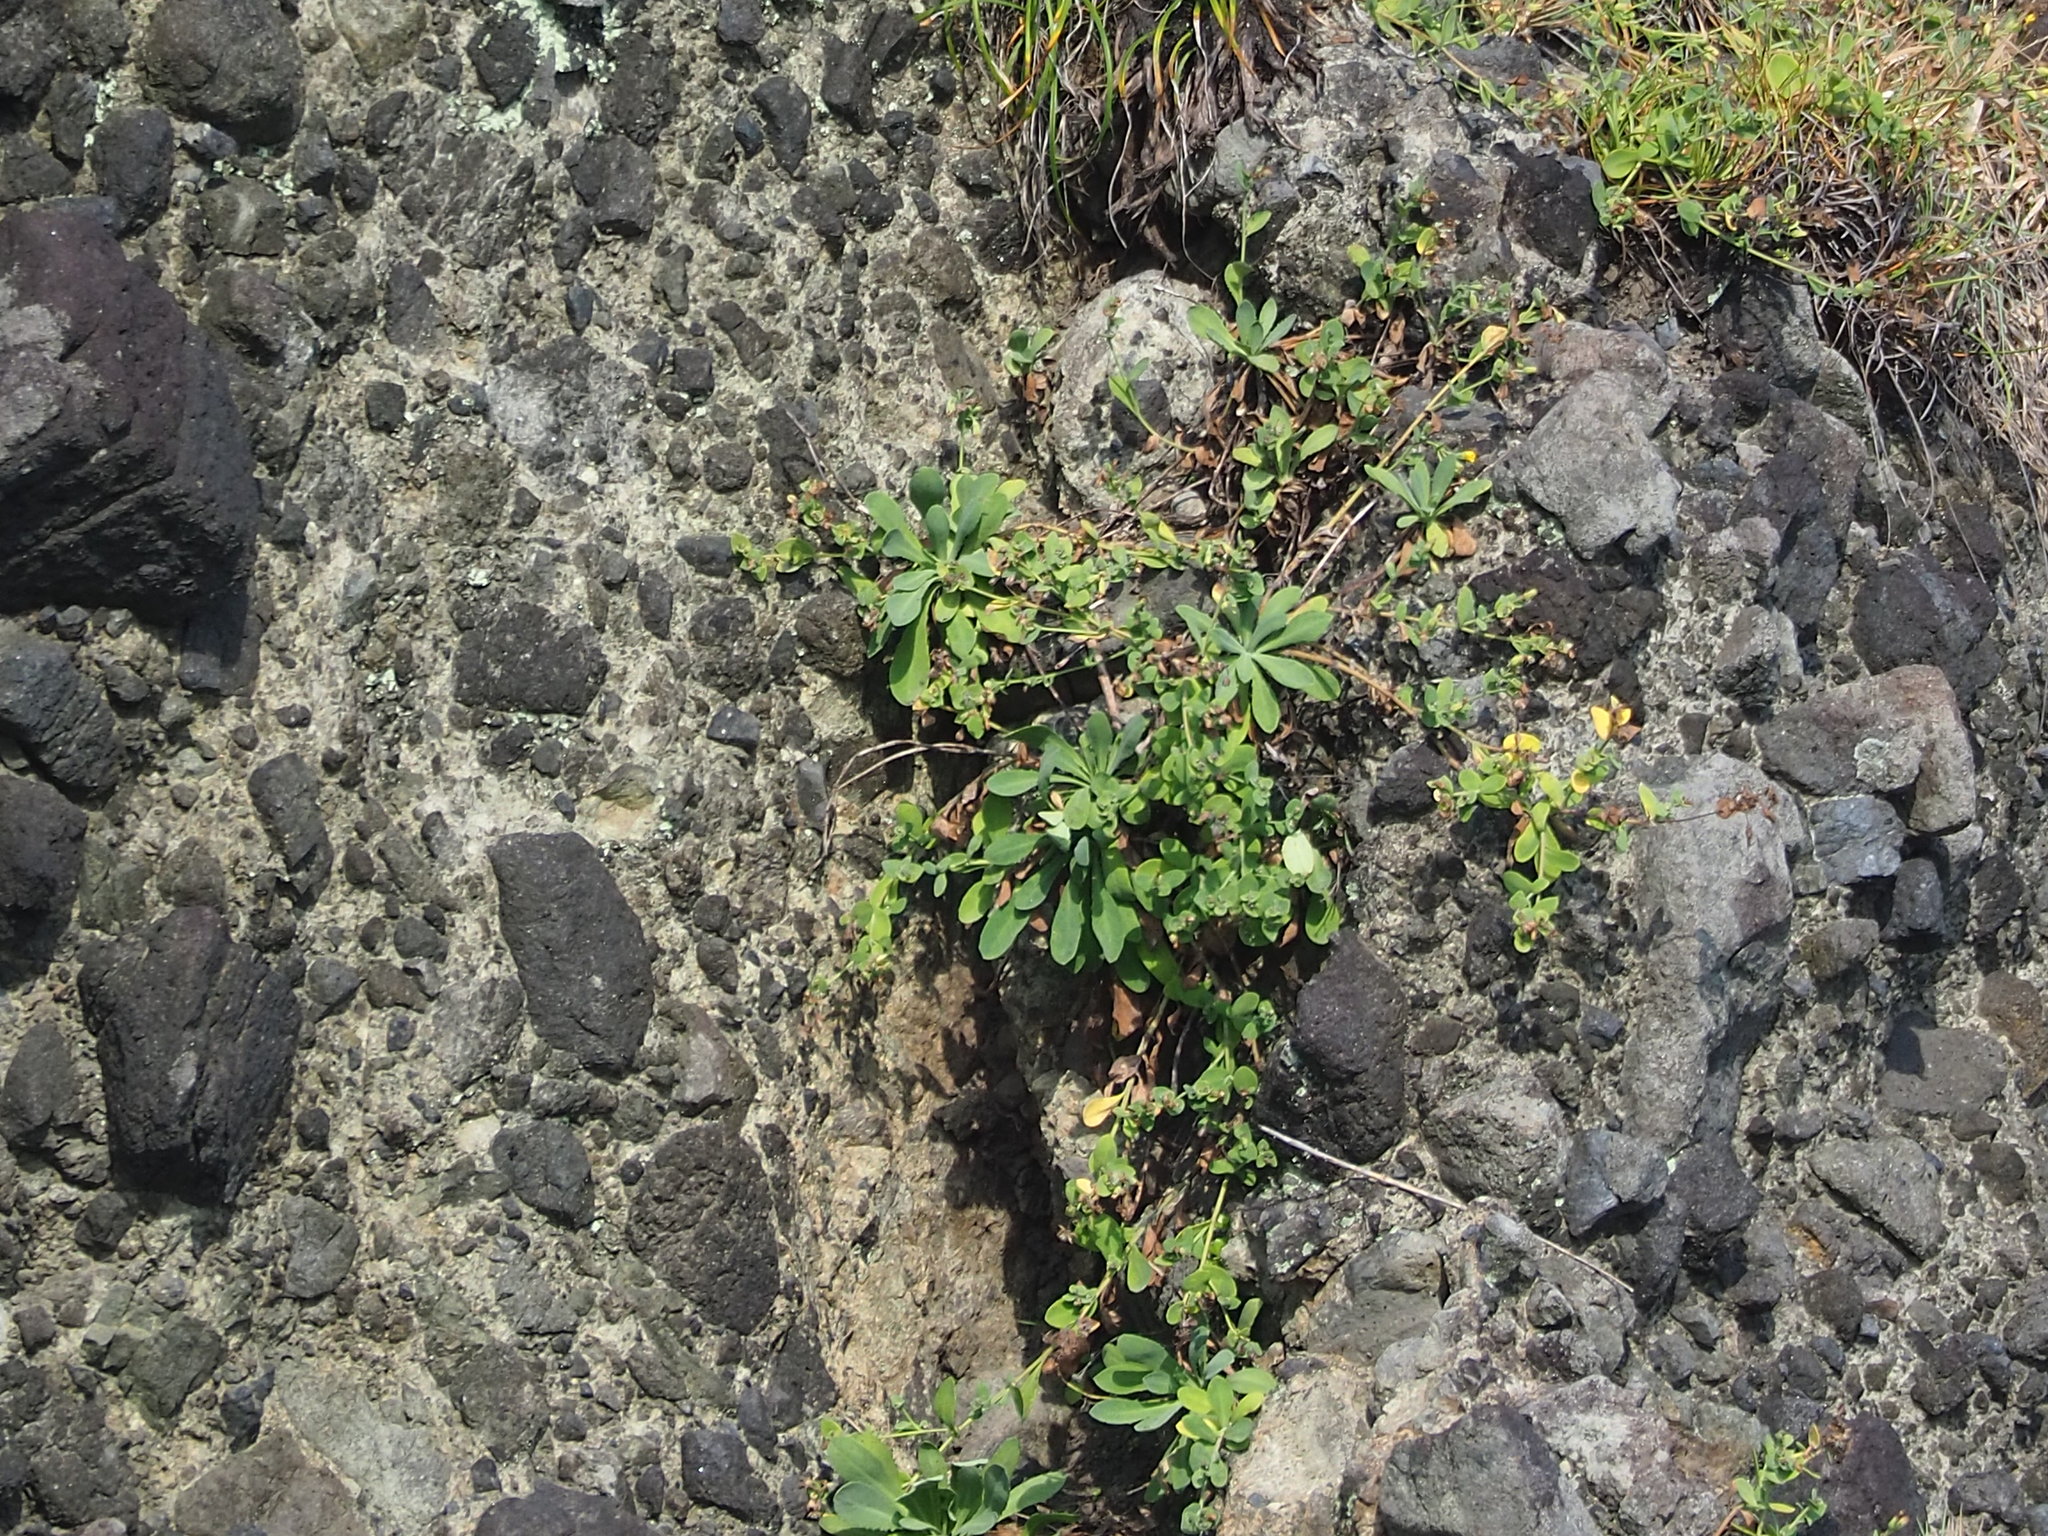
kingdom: Plantae
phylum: Tracheophyta
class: Magnoliopsida
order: Asterales
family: Asteraceae
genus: Crepidiastrum
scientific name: Crepidiastrum taiwanianum
